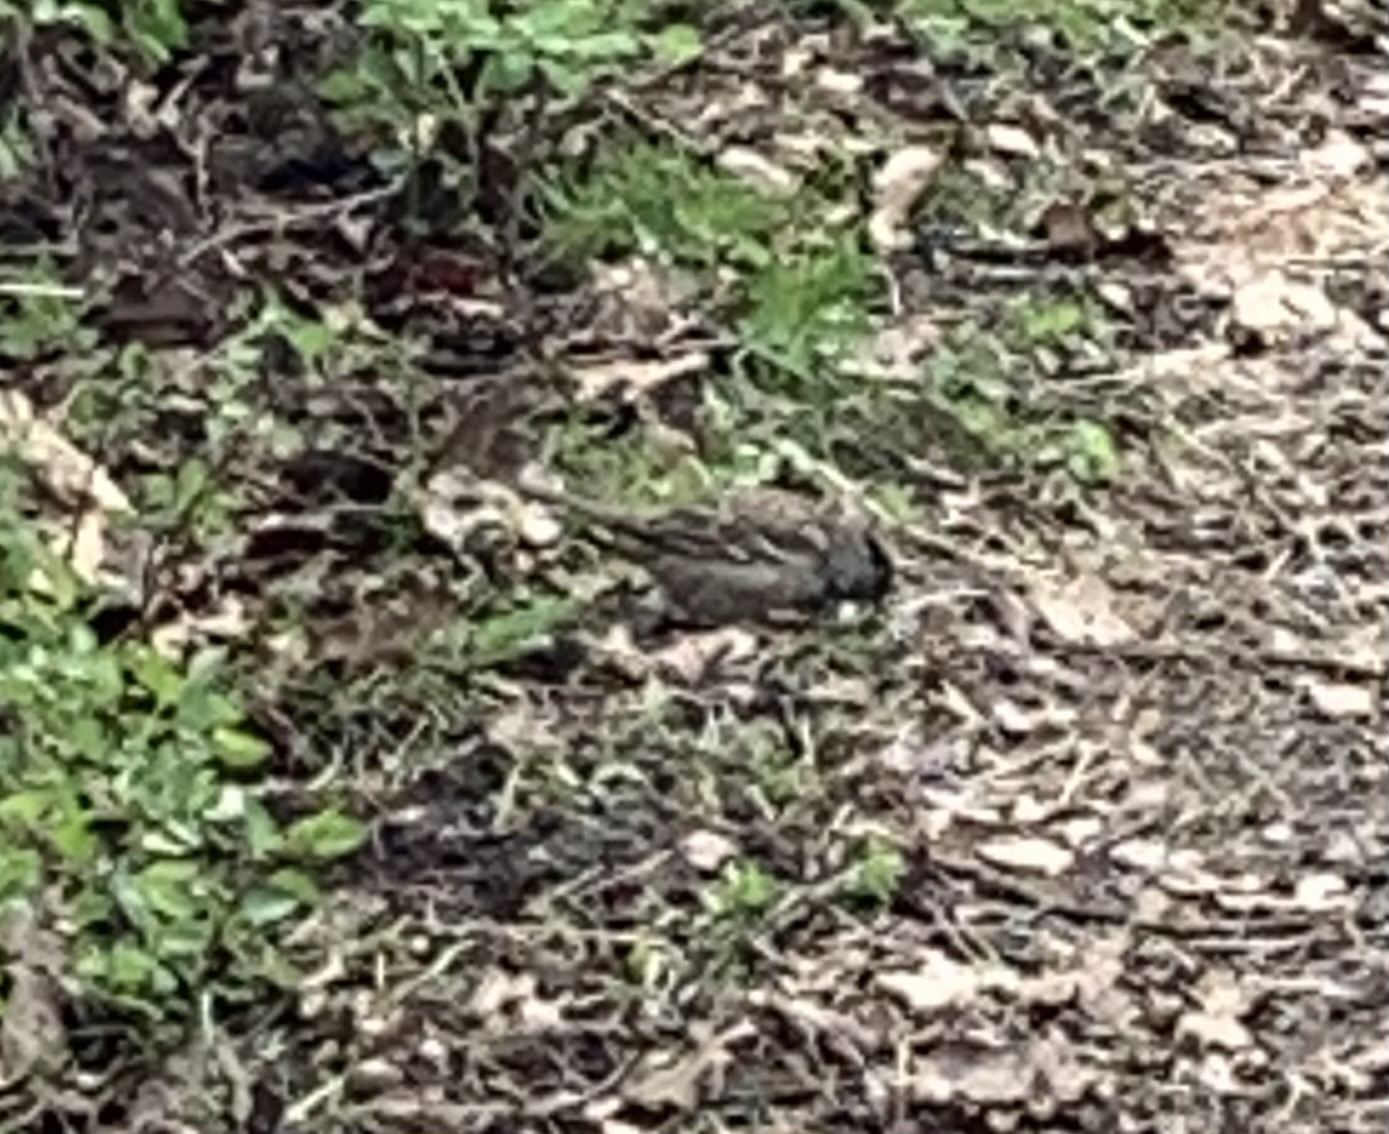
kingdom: Animalia
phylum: Chordata
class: Aves
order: Passeriformes
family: Passerellidae
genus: Zonotrichia
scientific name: Zonotrichia atricapilla
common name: Golden-crowned sparrow
